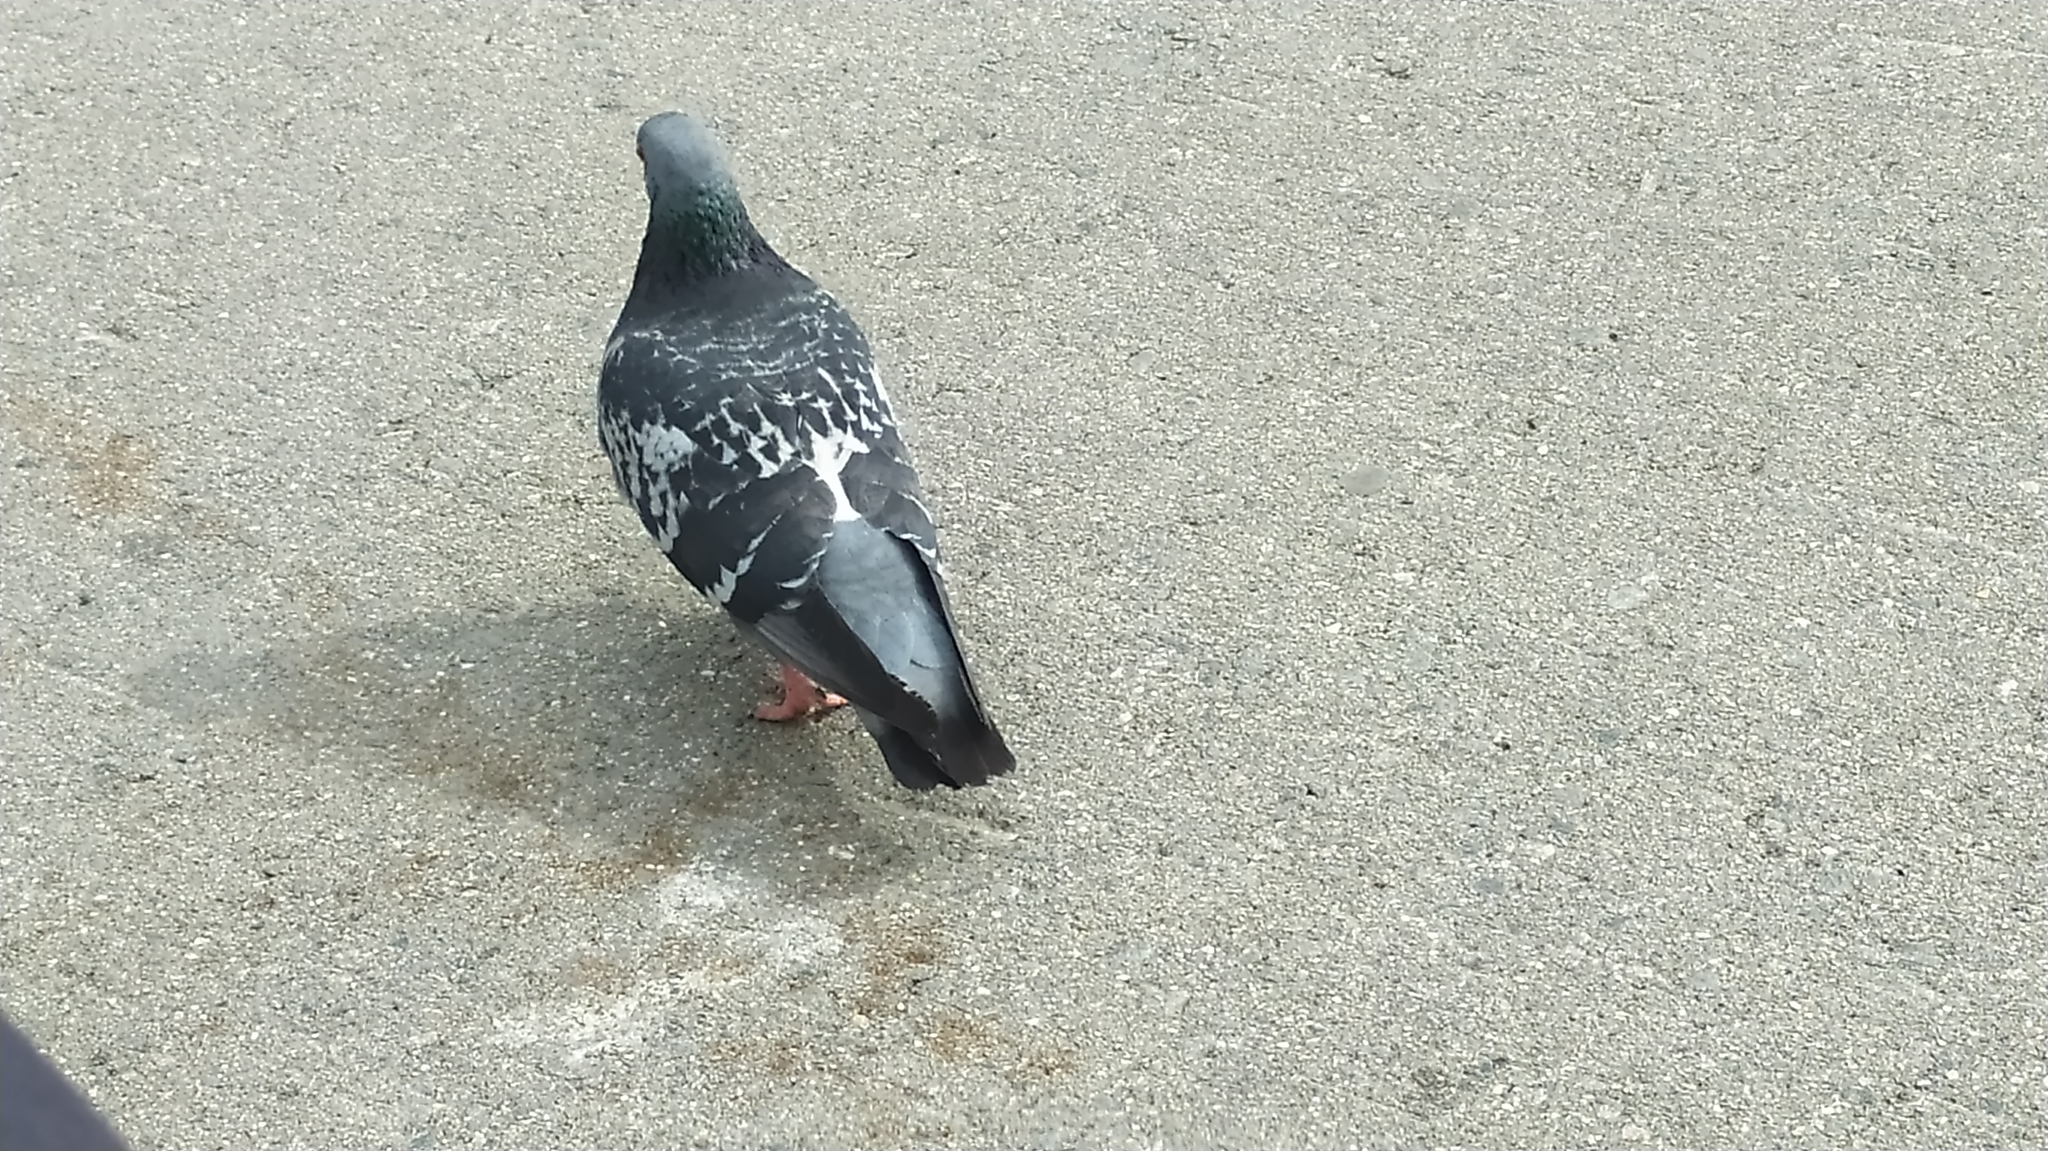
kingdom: Animalia
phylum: Chordata
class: Aves
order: Columbiformes
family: Columbidae
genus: Columba
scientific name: Columba livia
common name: Rock pigeon
